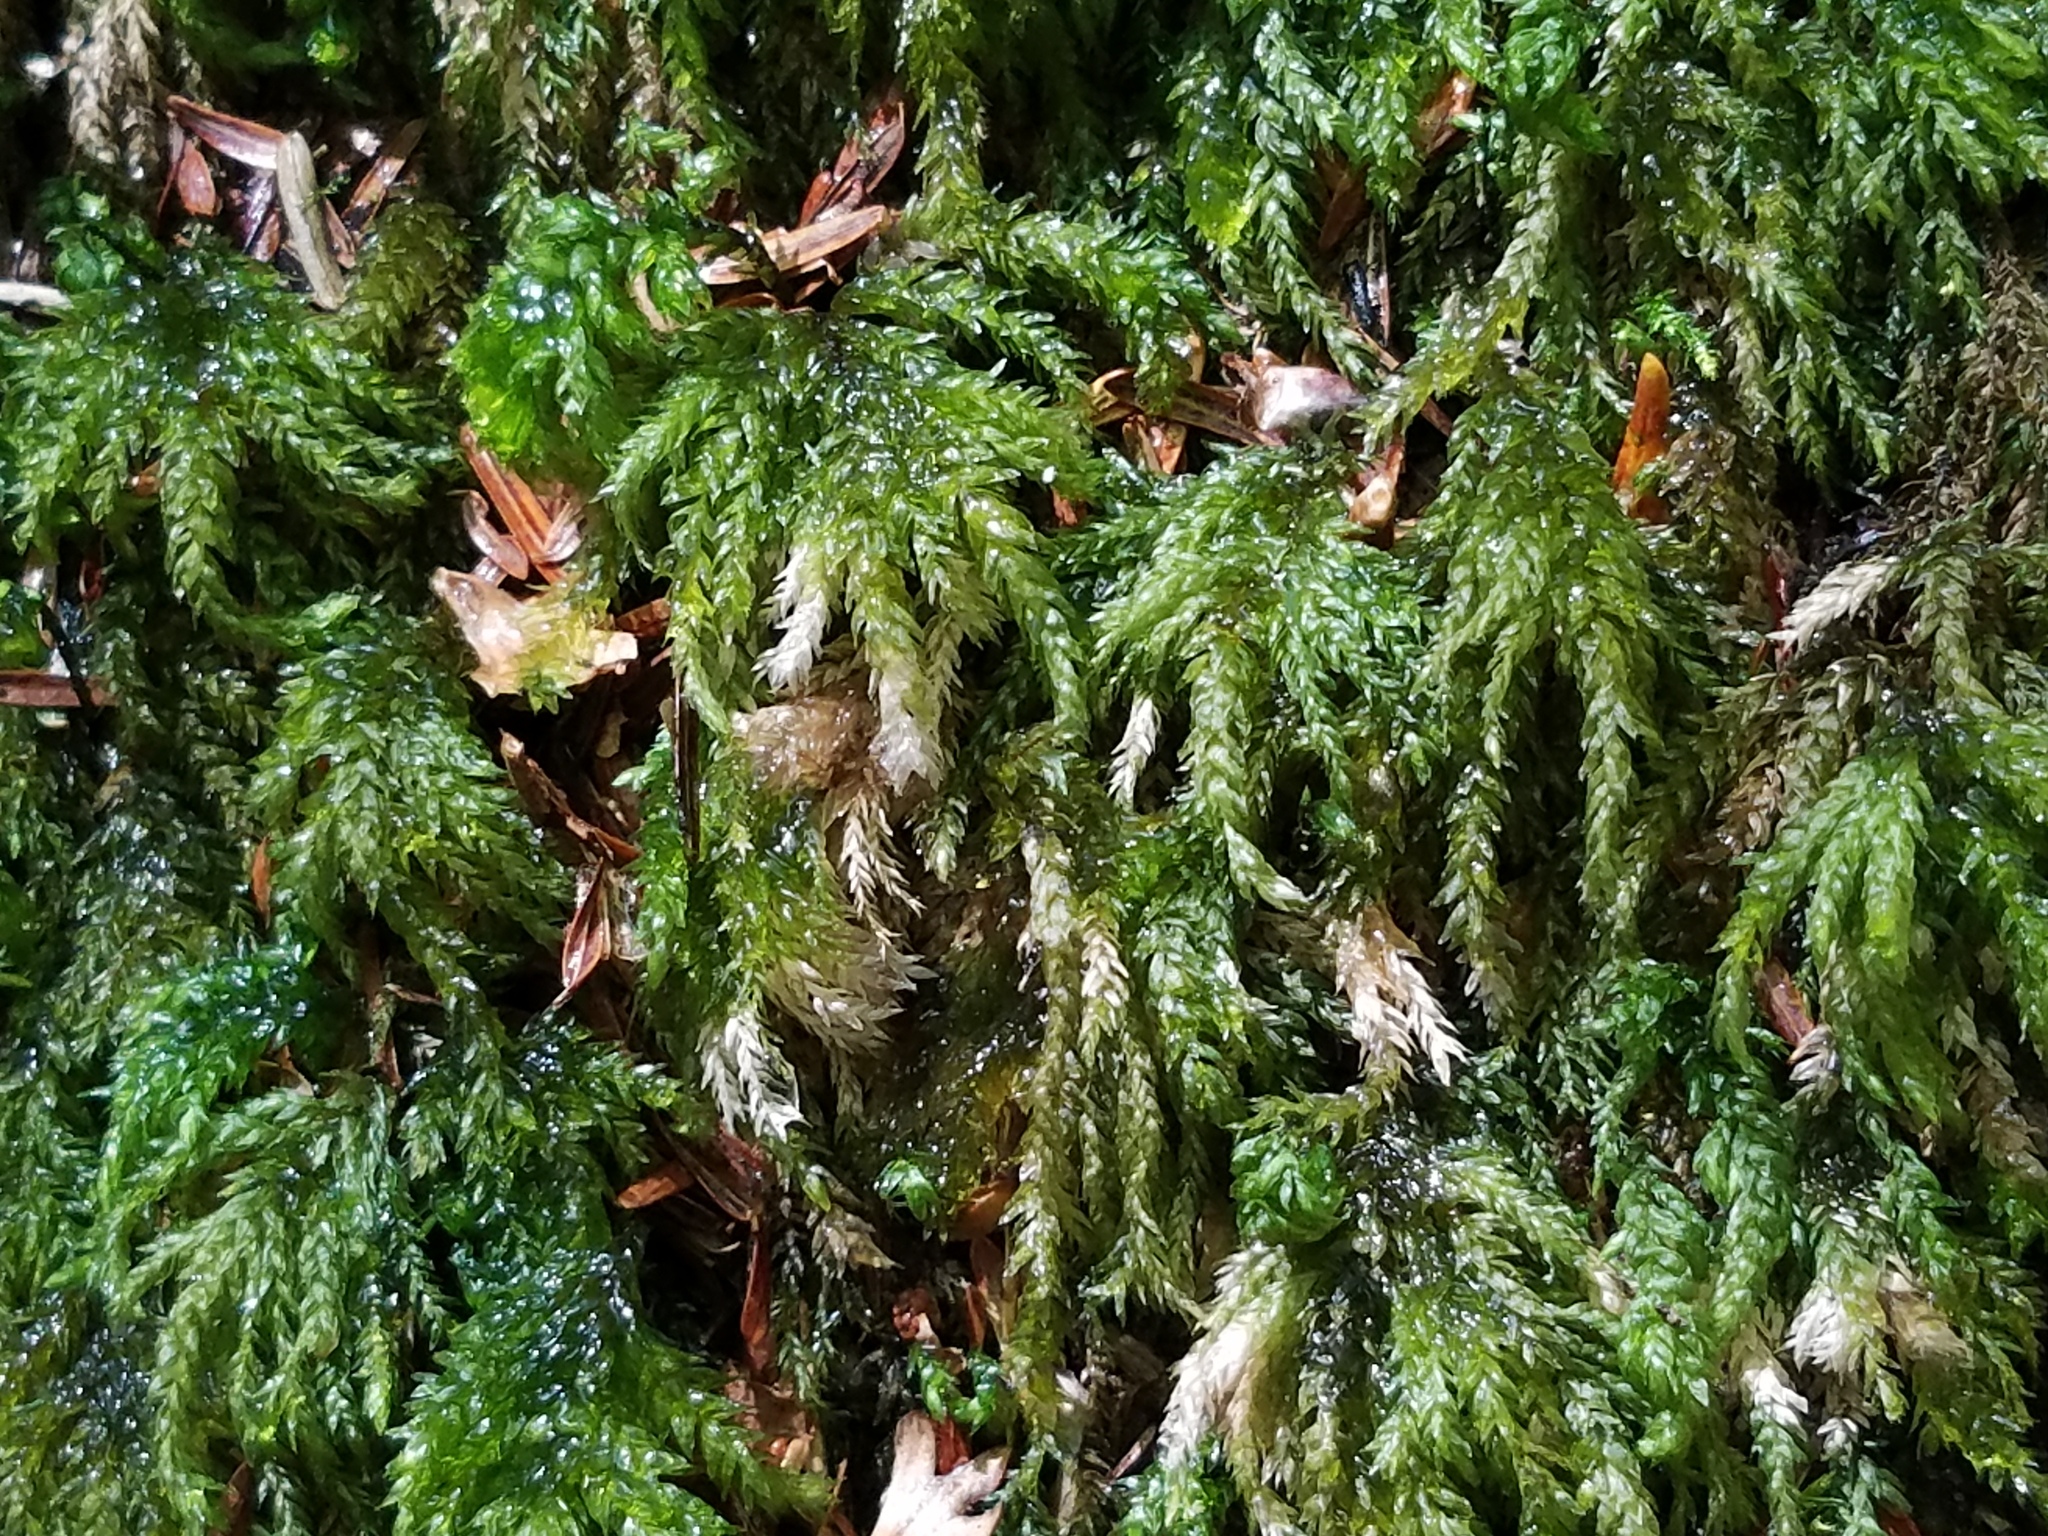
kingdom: Plantae
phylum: Bryophyta
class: Bryopsida
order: Hypnales
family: Neckeraceae
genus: Thamnobryum
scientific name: Thamnobryum subserratum
